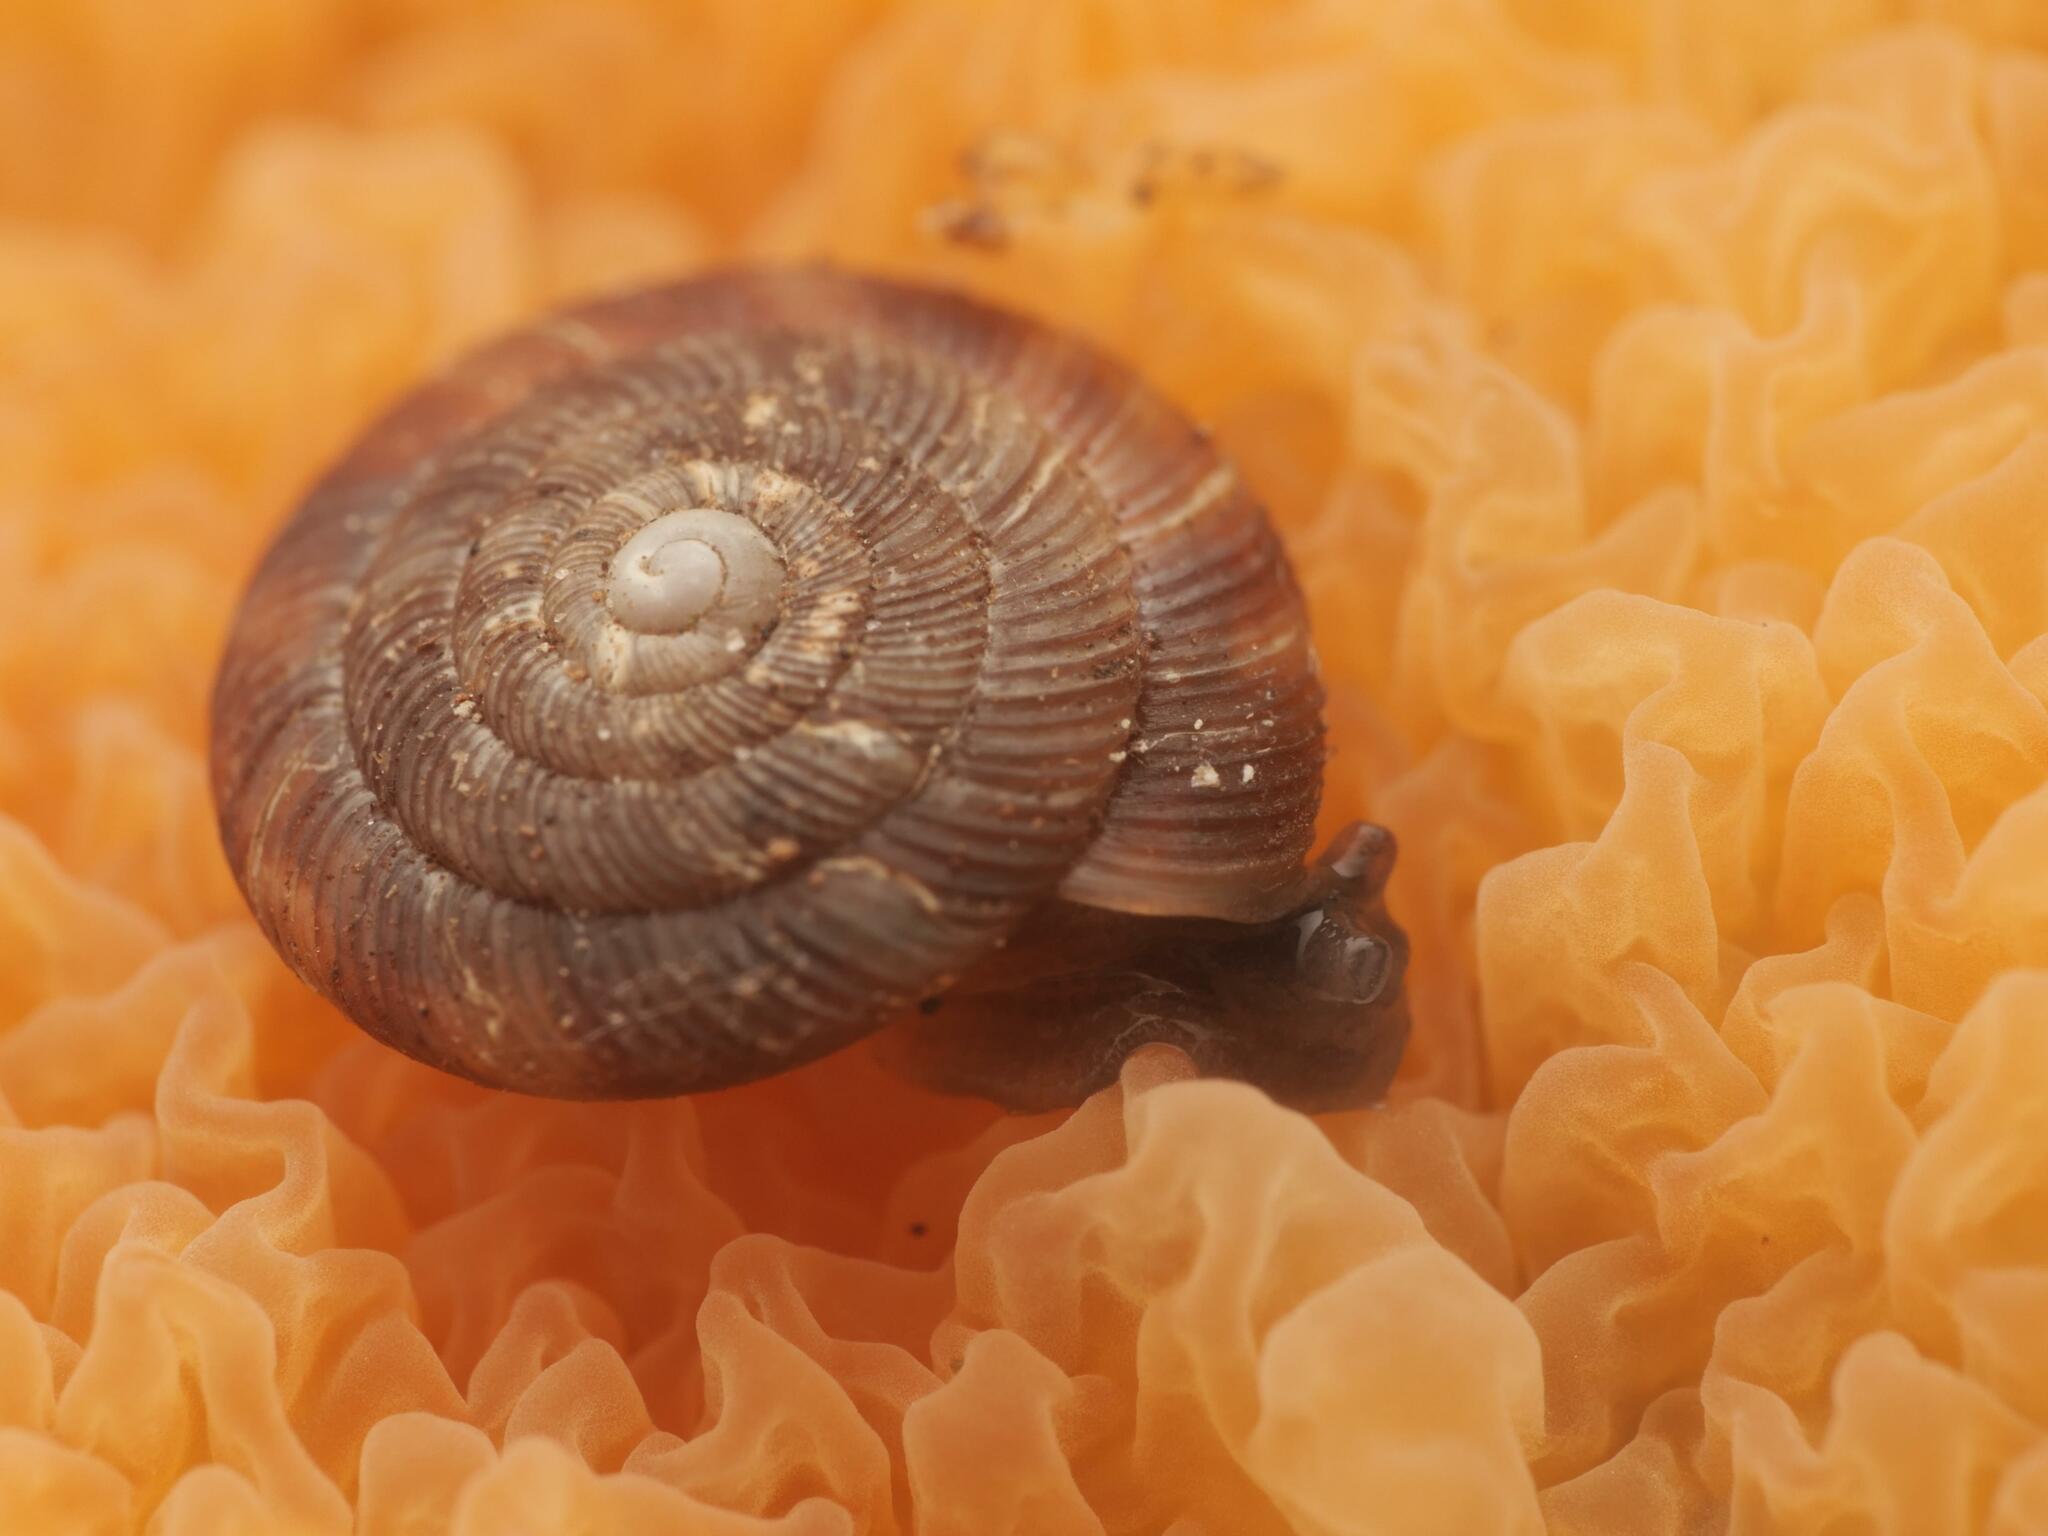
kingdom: Animalia
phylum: Mollusca
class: Gastropoda
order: Stylommatophora
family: Discidae
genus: Discus
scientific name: Discus rotundatus
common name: Rounded snail
